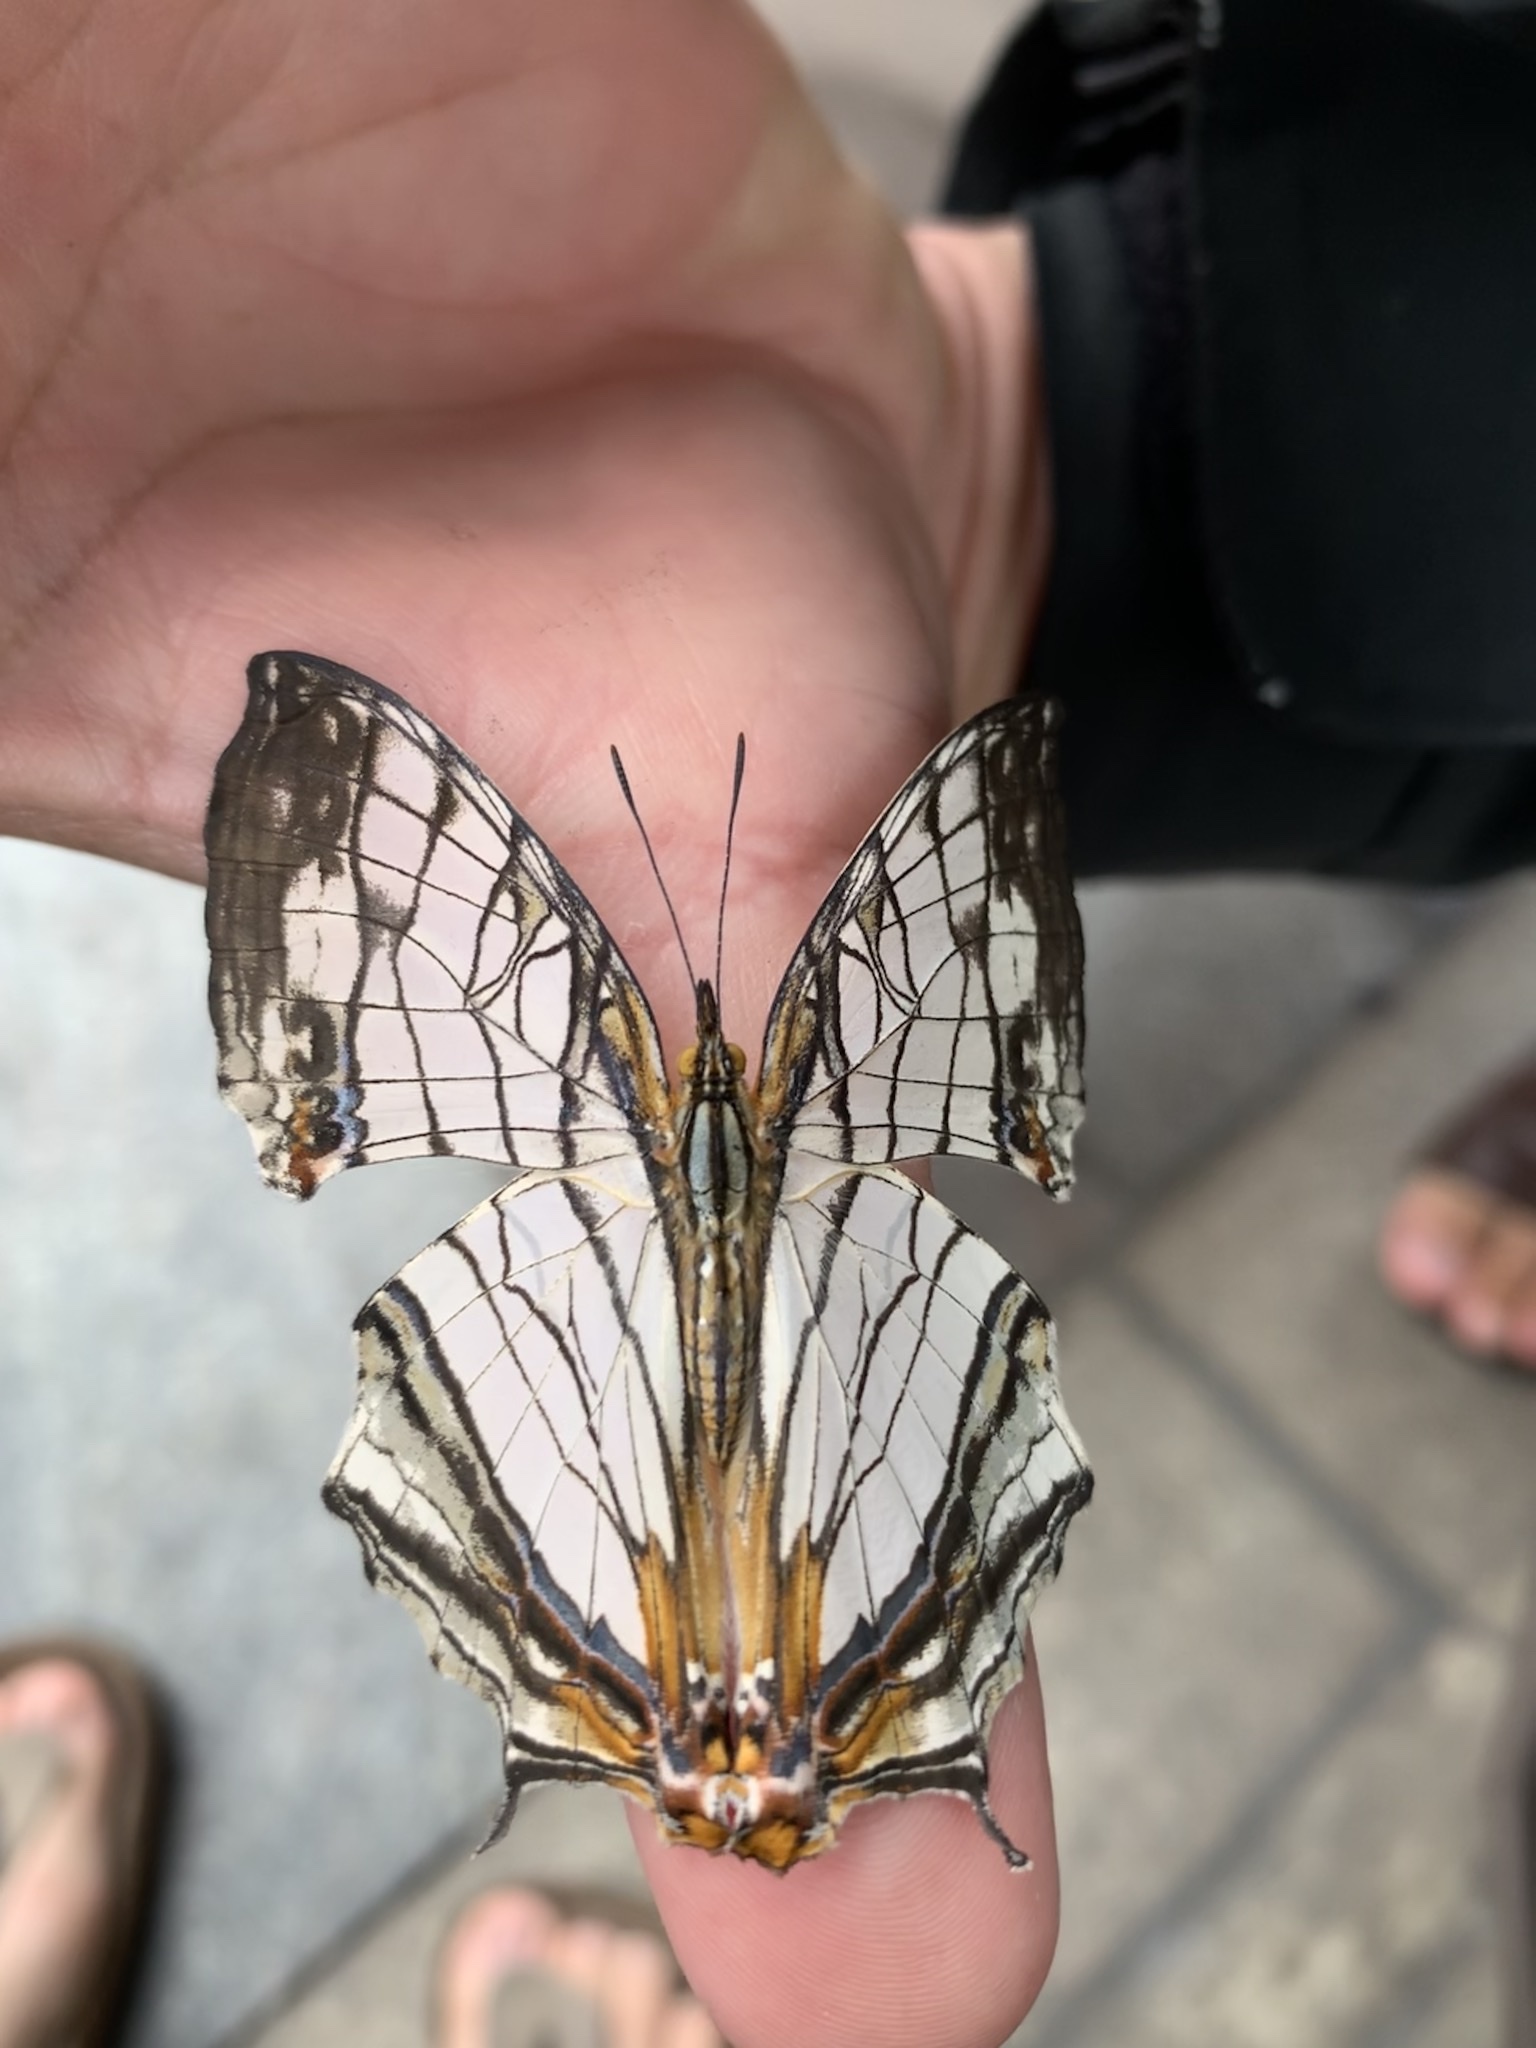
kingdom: Animalia
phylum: Arthropoda
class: Insecta
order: Lepidoptera
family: Nymphalidae
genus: Cyrestis
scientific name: Cyrestis thyodamas
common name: Common mapwing
